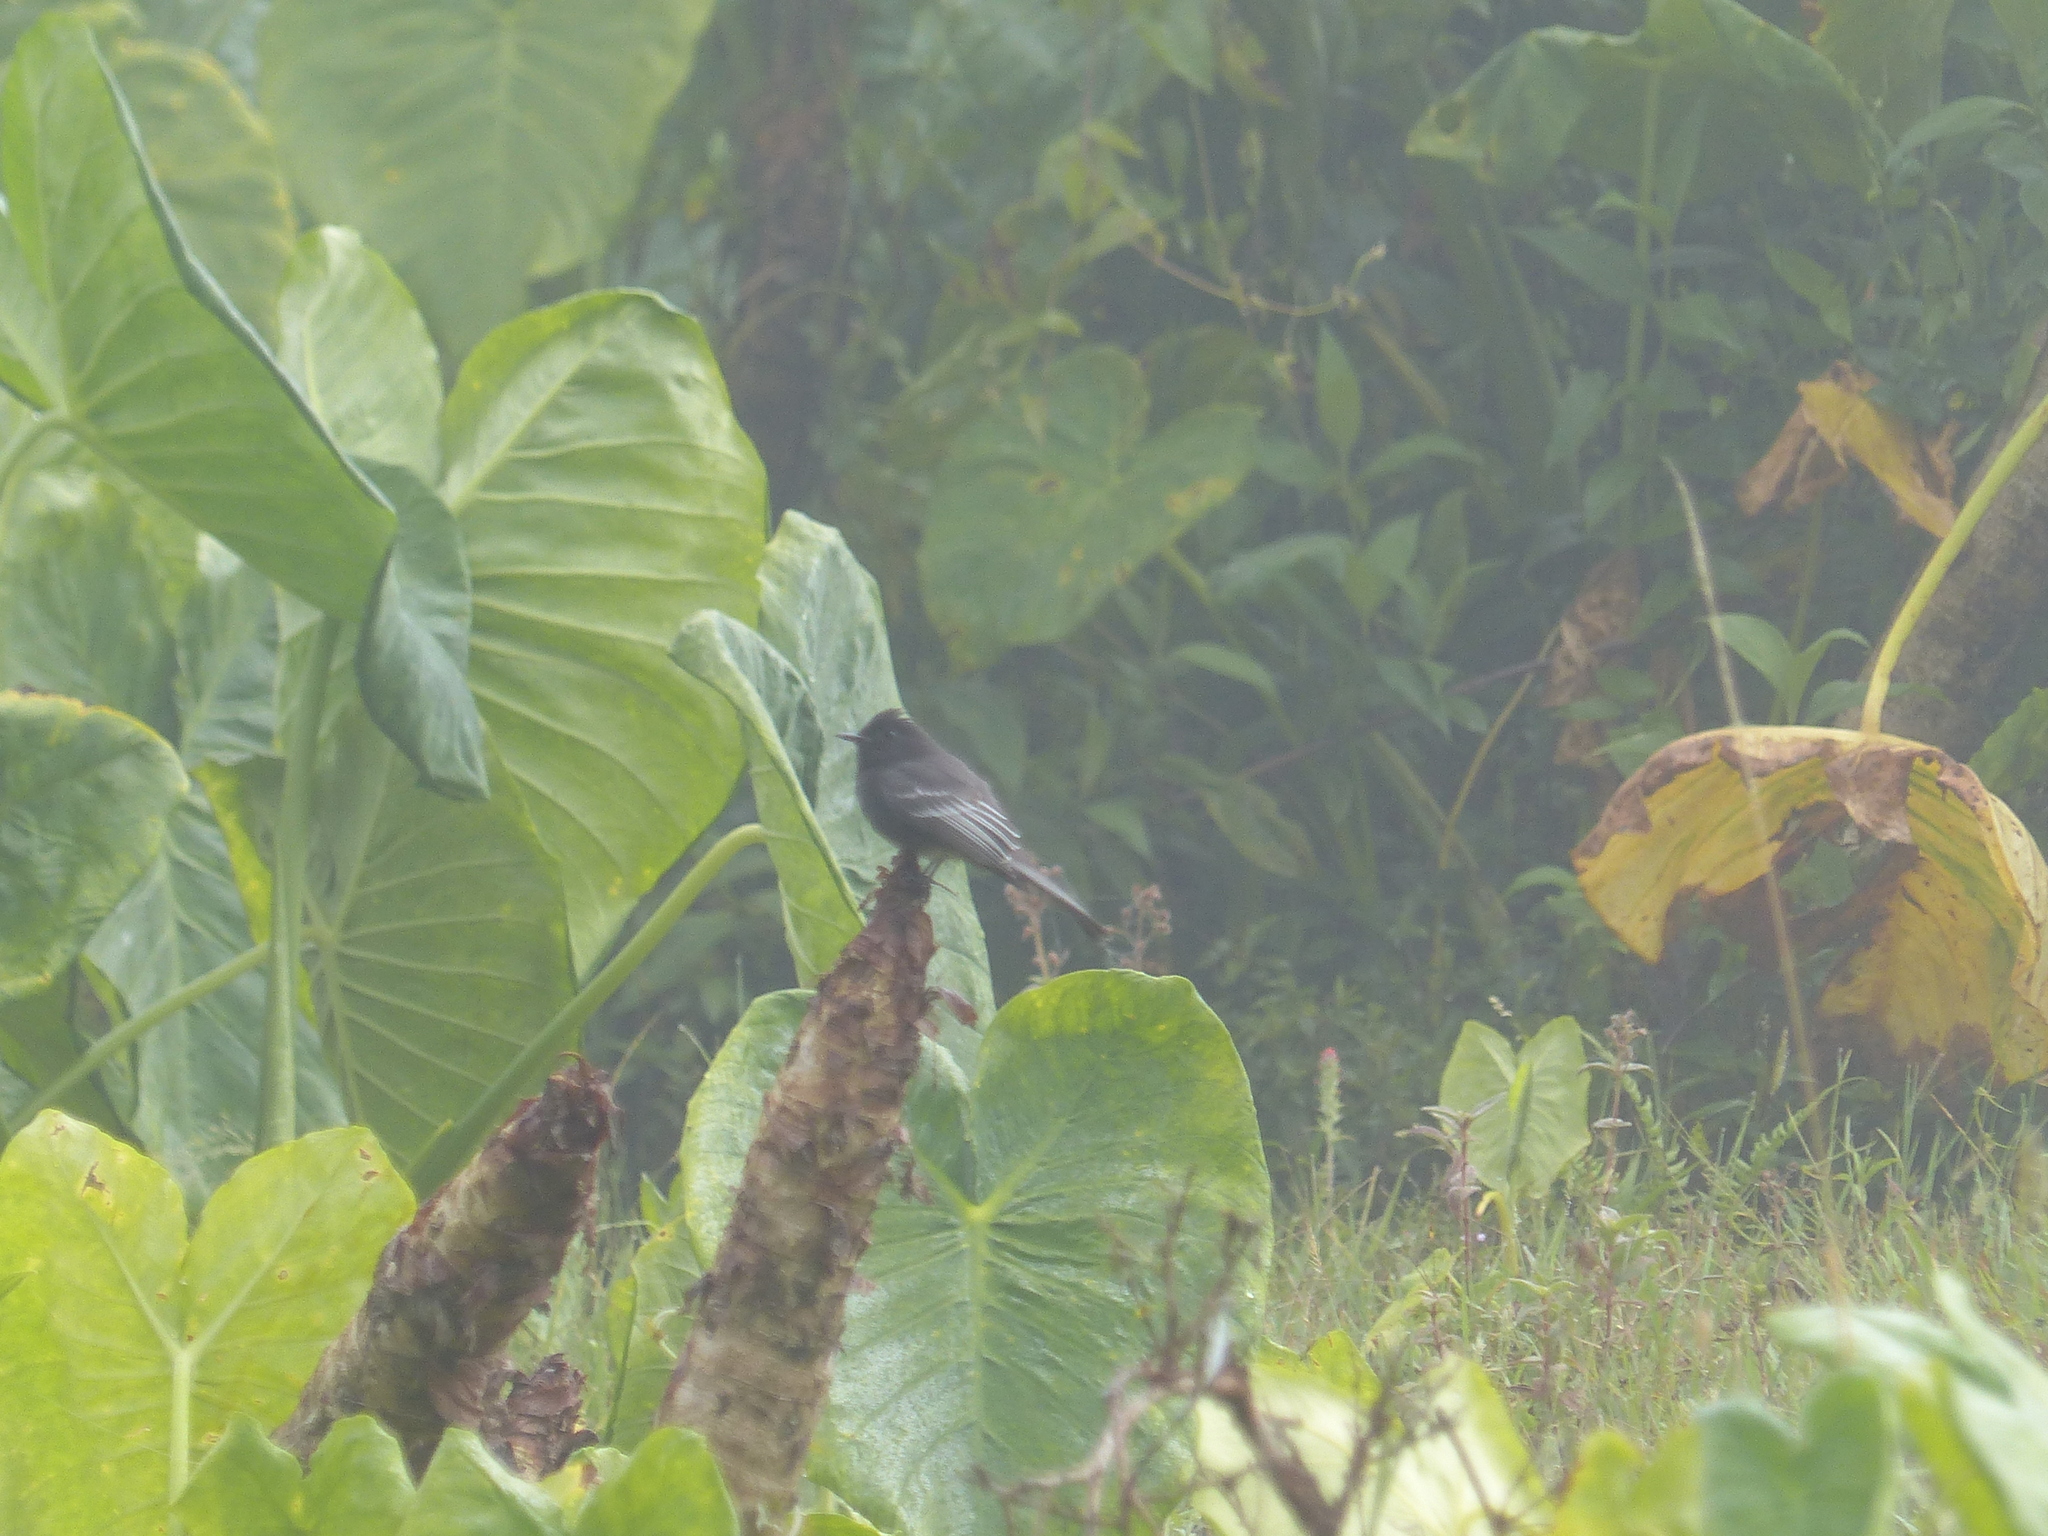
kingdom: Animalia
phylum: Chordata
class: Aves
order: Passeriformes
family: Tyrannidae
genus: Sayornis
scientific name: Sayornis nigricans
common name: Black phoebe
